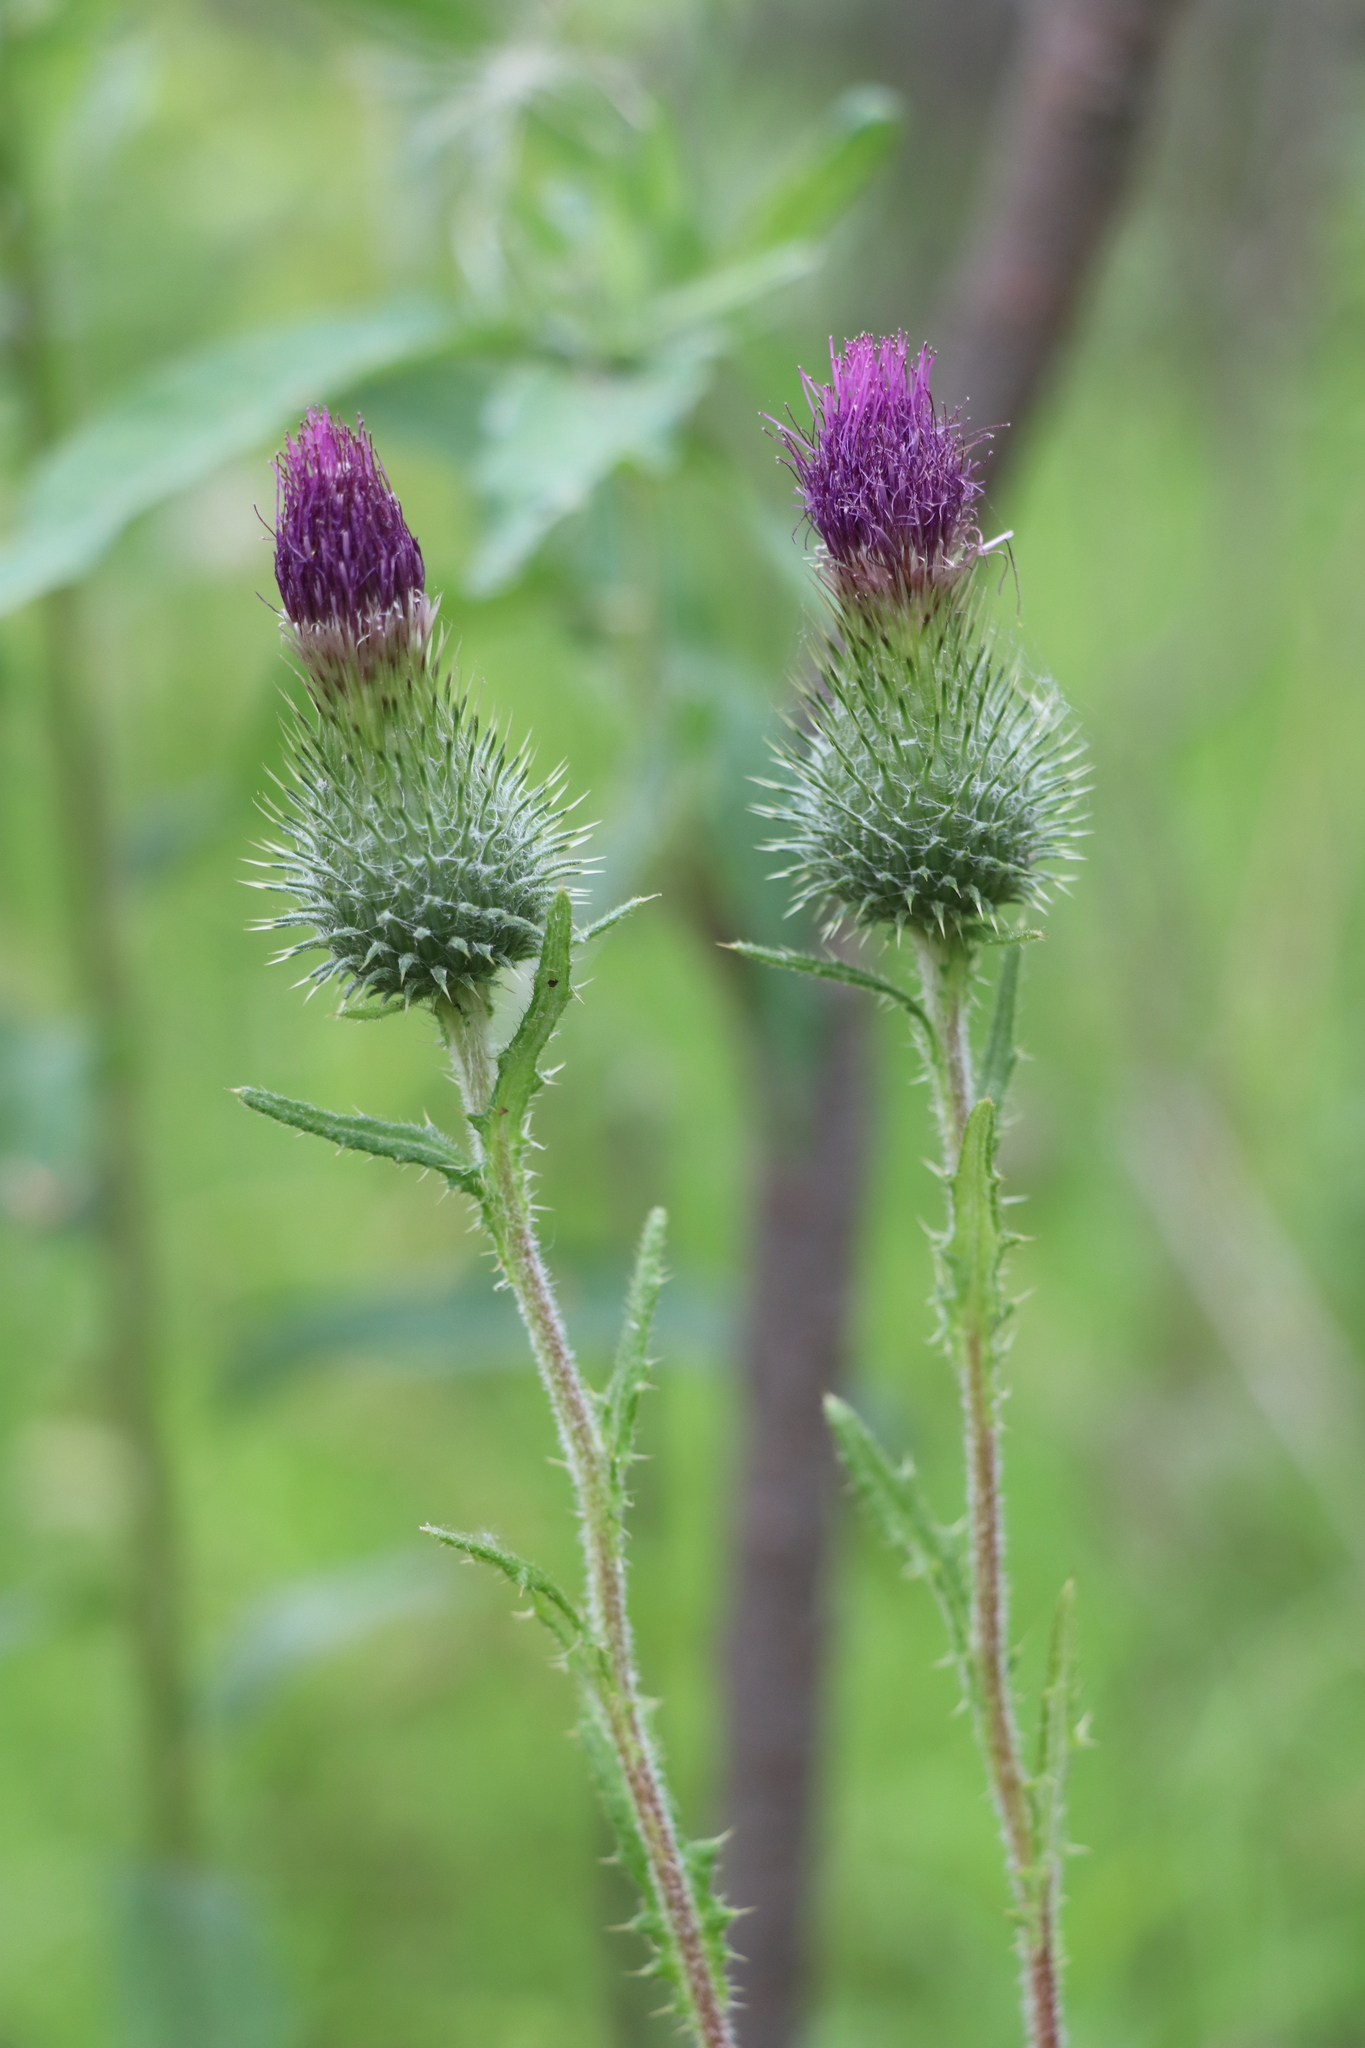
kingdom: Plantae
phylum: Tracheophyta
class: Magnoliopsida
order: Asterales
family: Asteraceae
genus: Cirsium
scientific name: Cirsium vulgare
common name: Bull thistle
